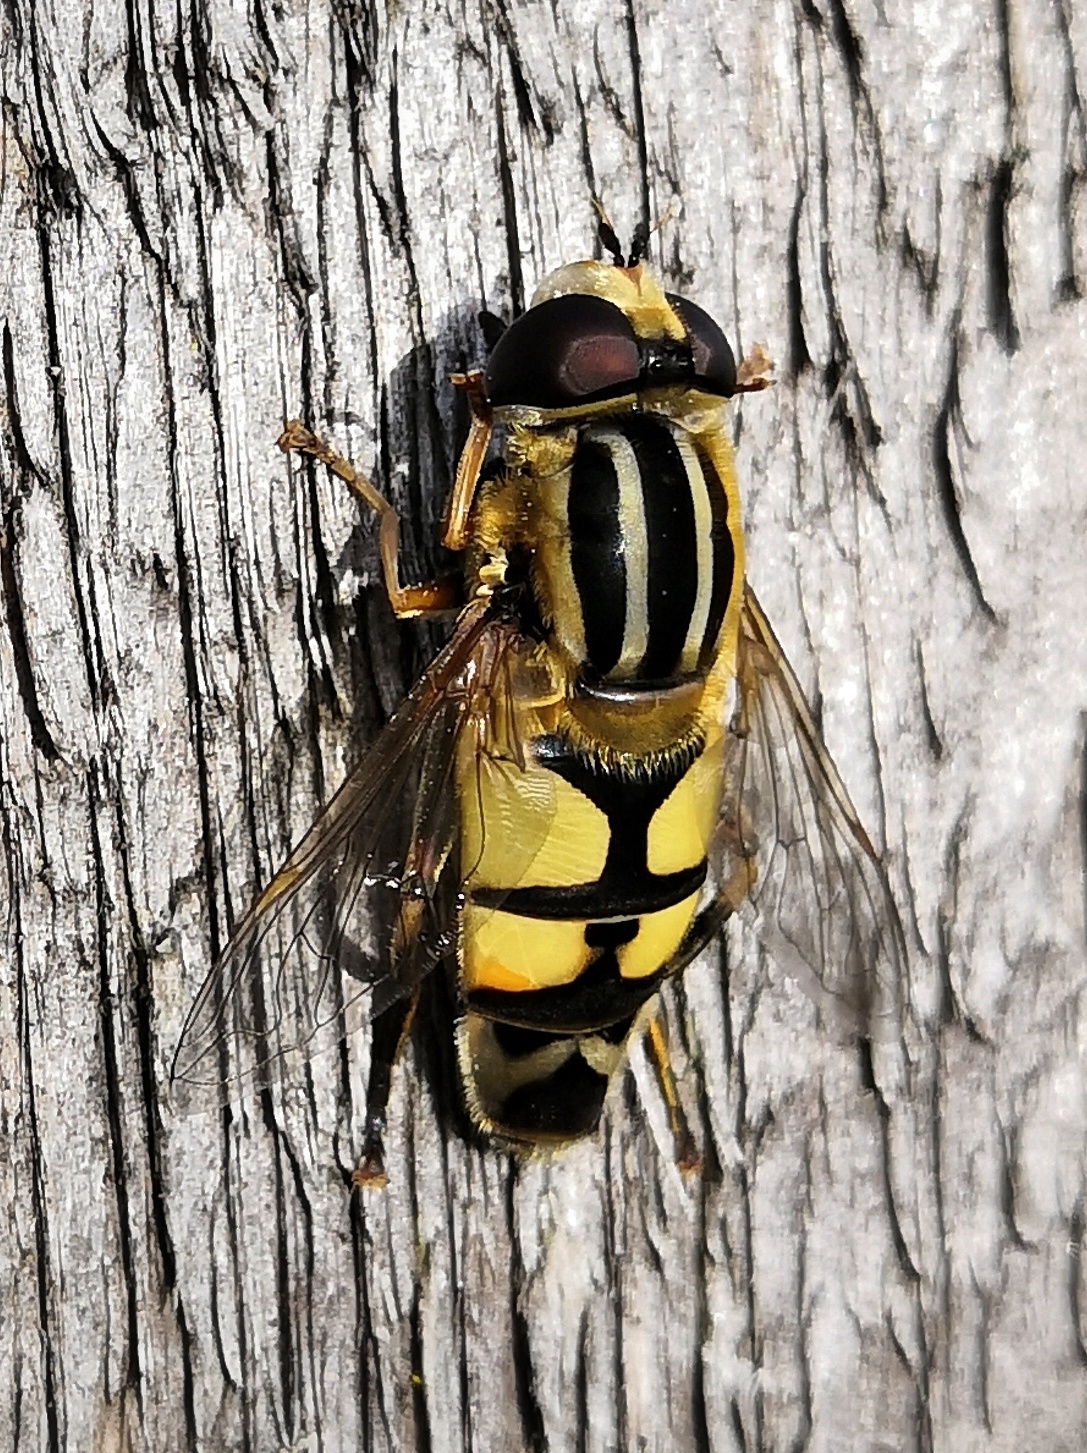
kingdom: Animalia
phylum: Arthropoda
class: Insecta
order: Diptera
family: Syrphidae
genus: Helophilus
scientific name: Helophilus trivittatus
